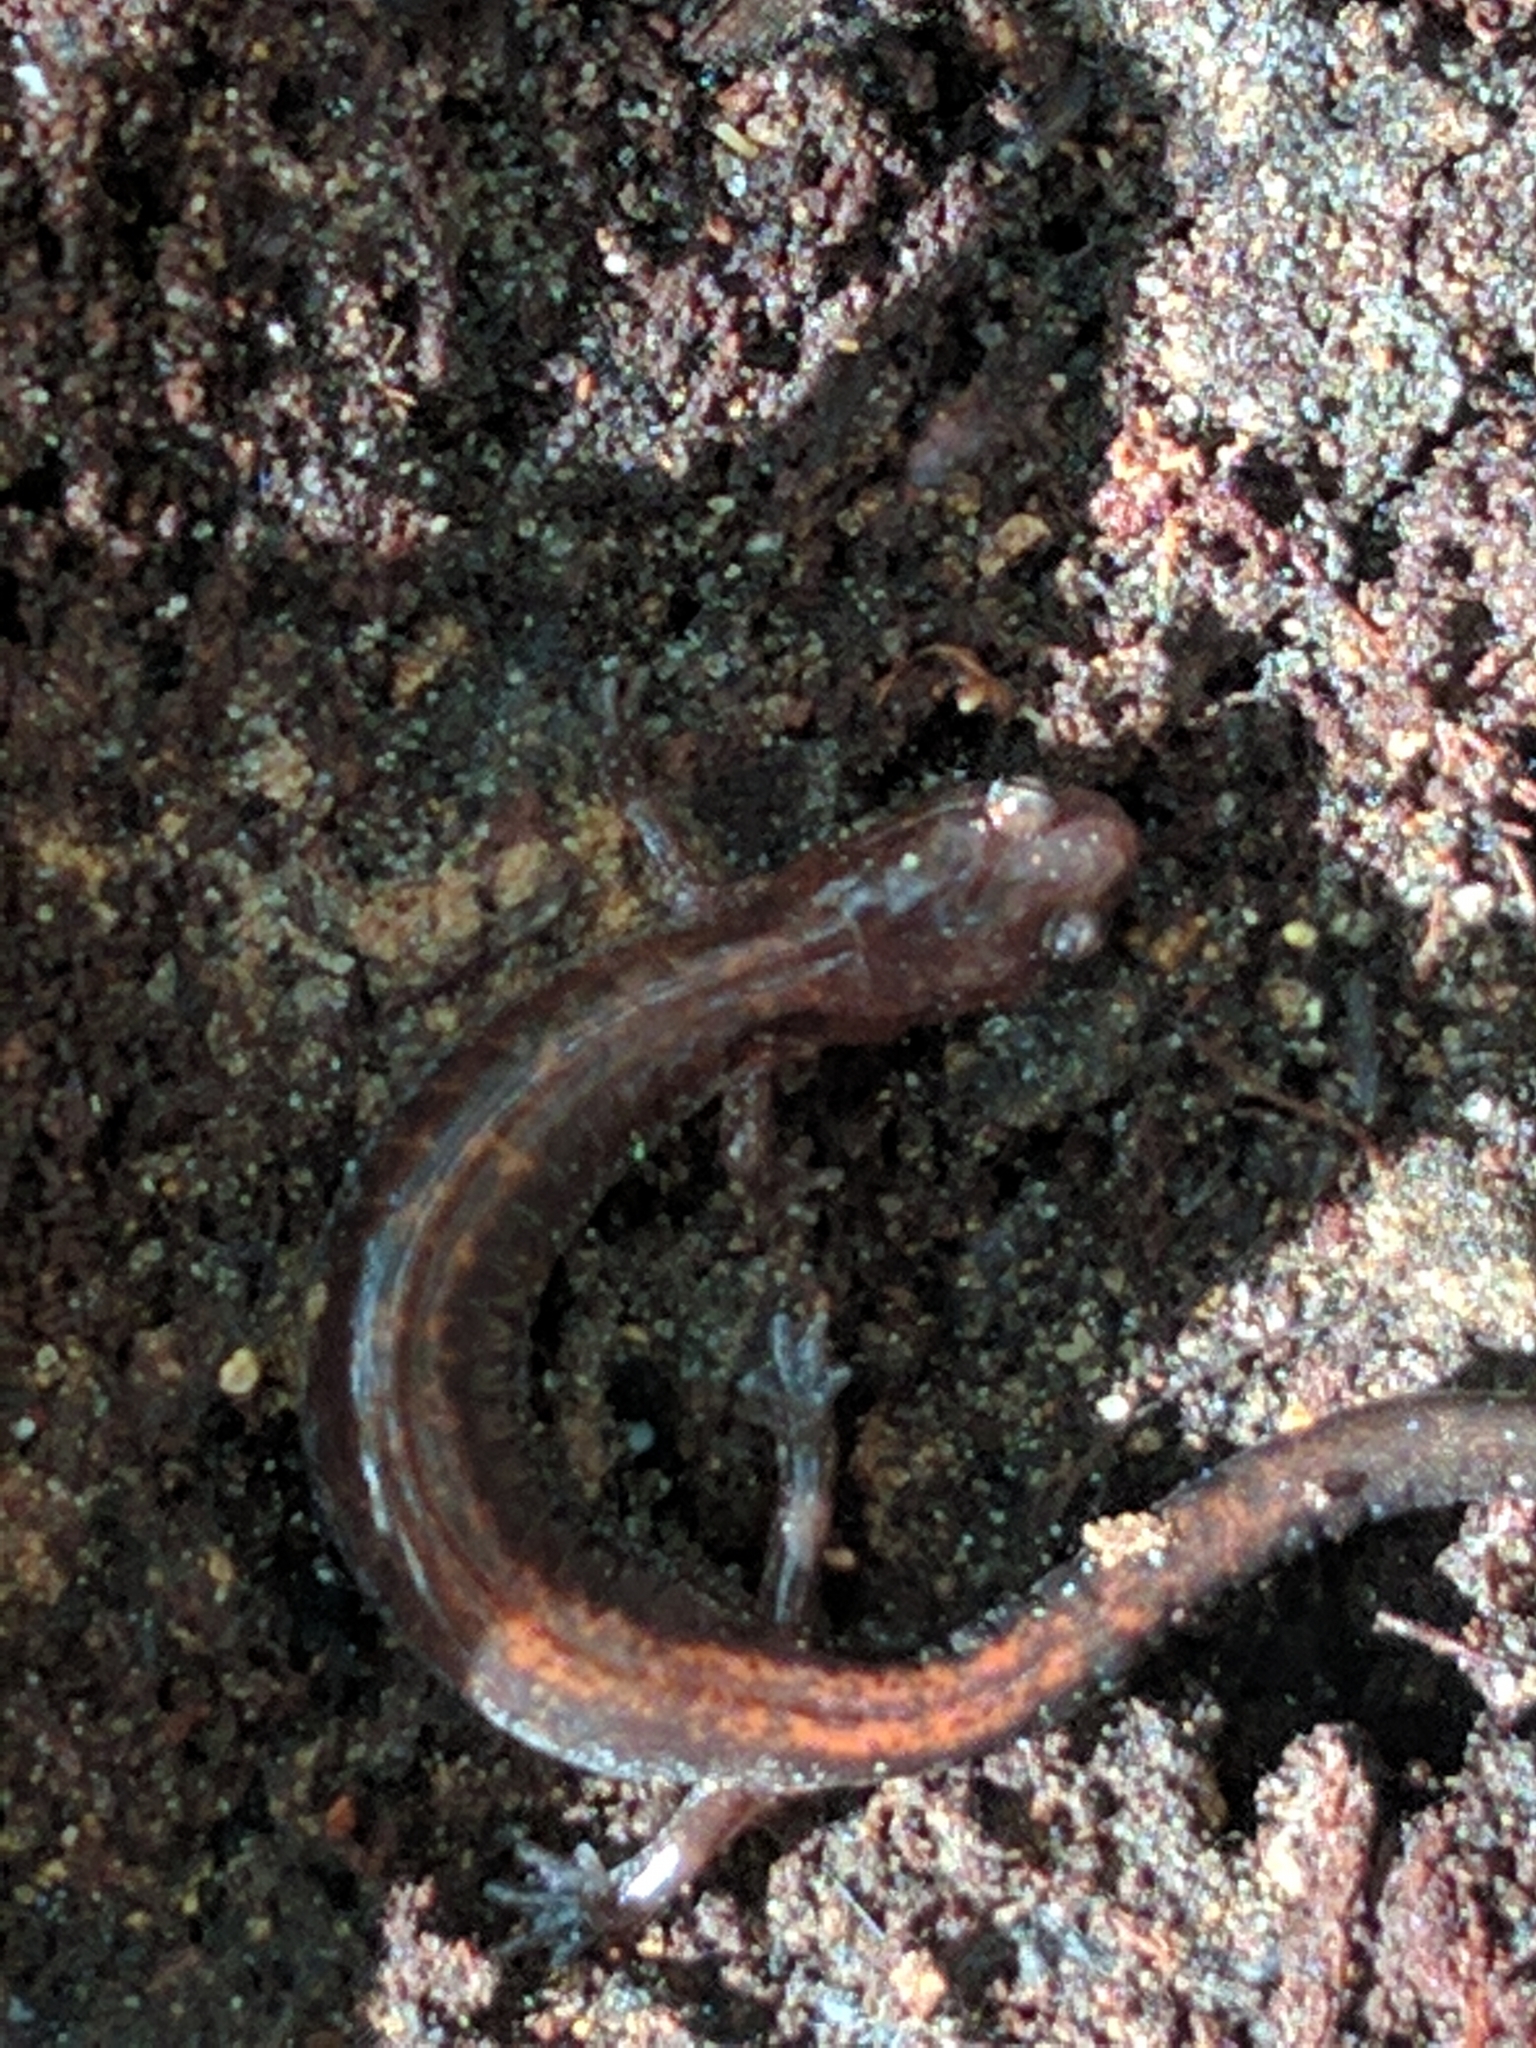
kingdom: Animalia
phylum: Chordata
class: Amphibia
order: Caudata
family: Plethodontidae
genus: Plethodon
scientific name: Plethodon cinereus
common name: Redback salamander
